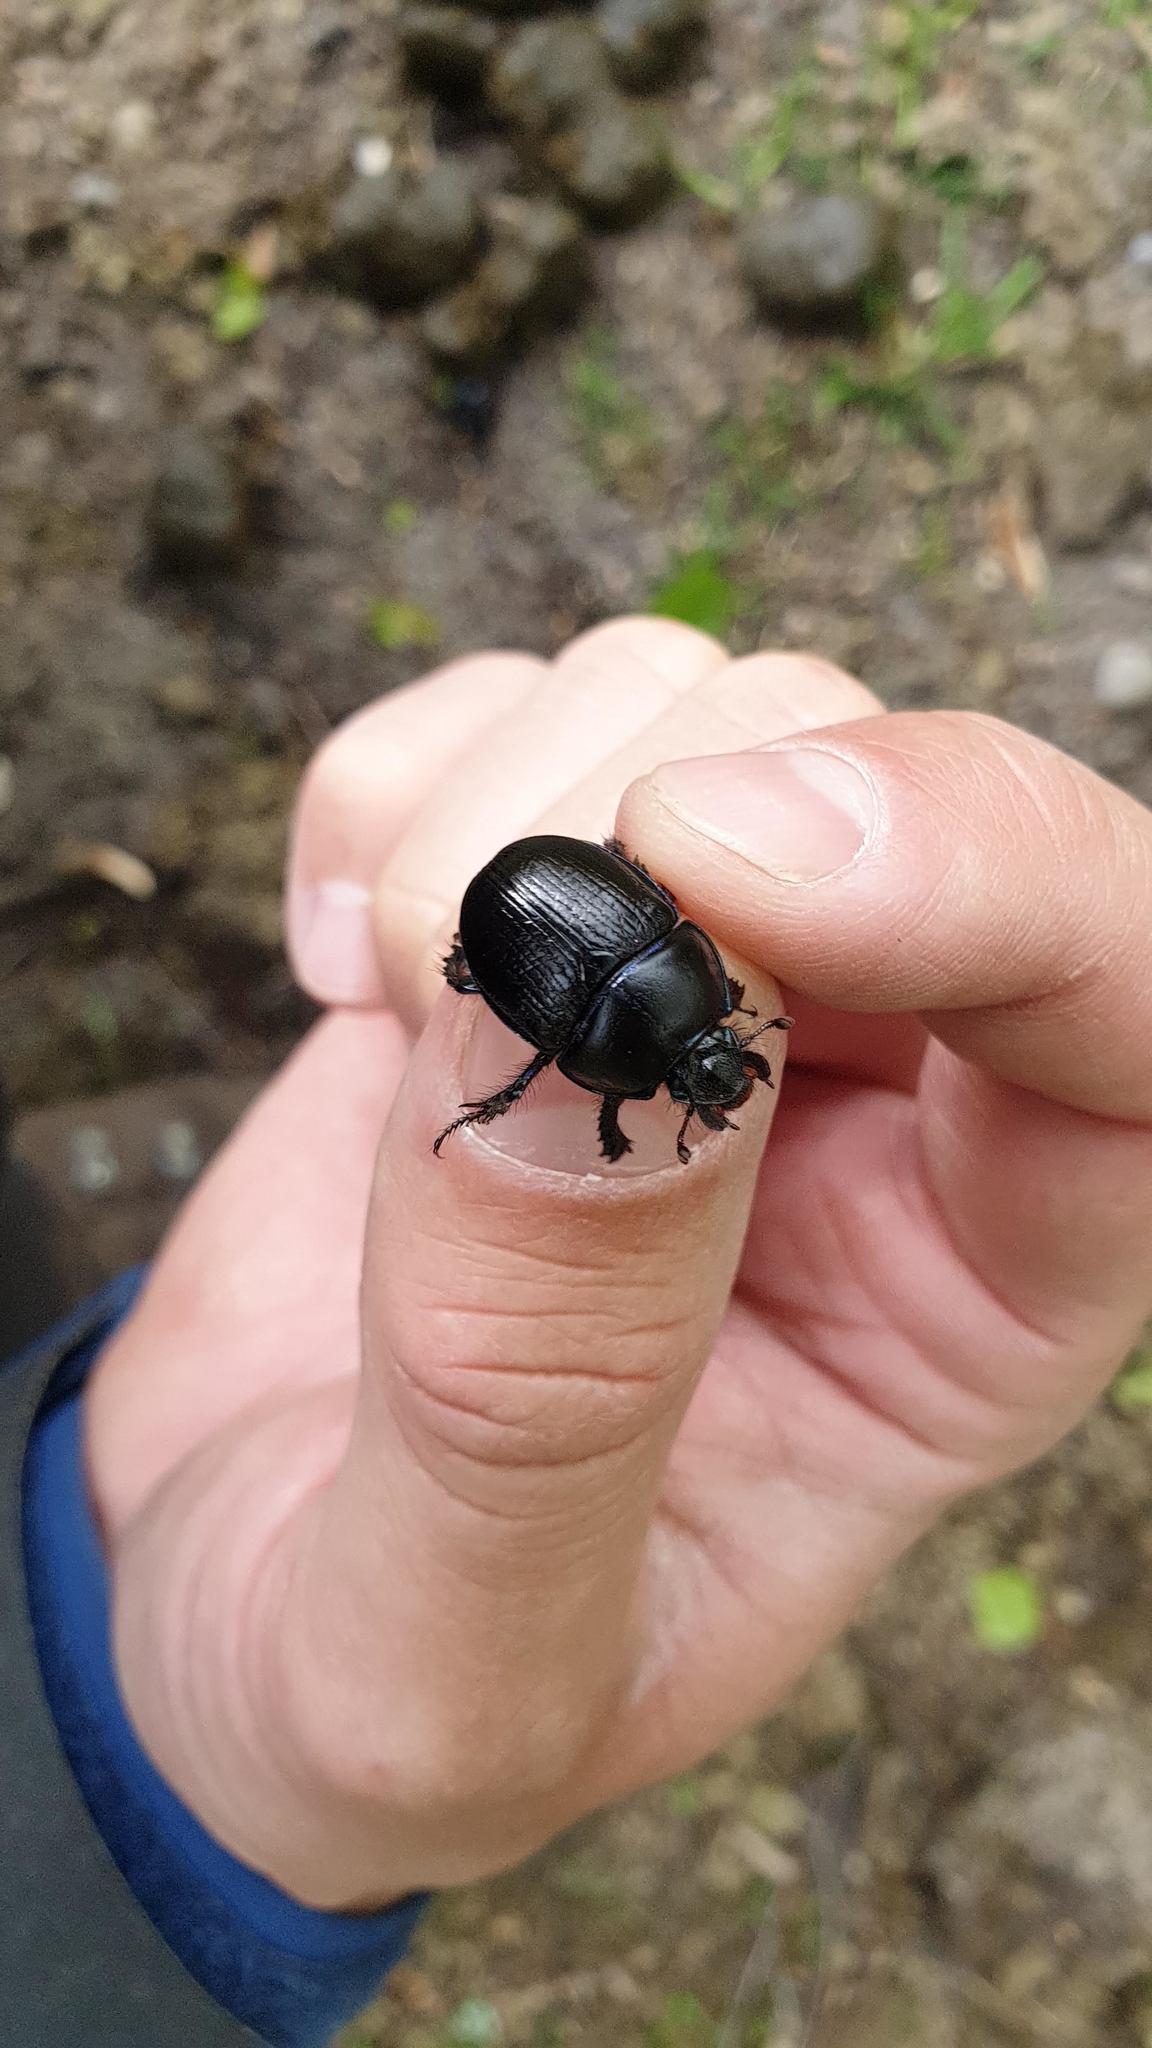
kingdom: Animalia
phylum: Arthropoda
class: Insecta
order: Coleoptera
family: Geotrupidae
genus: Anoplotrupes
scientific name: Anoplotrupes stercorosus
